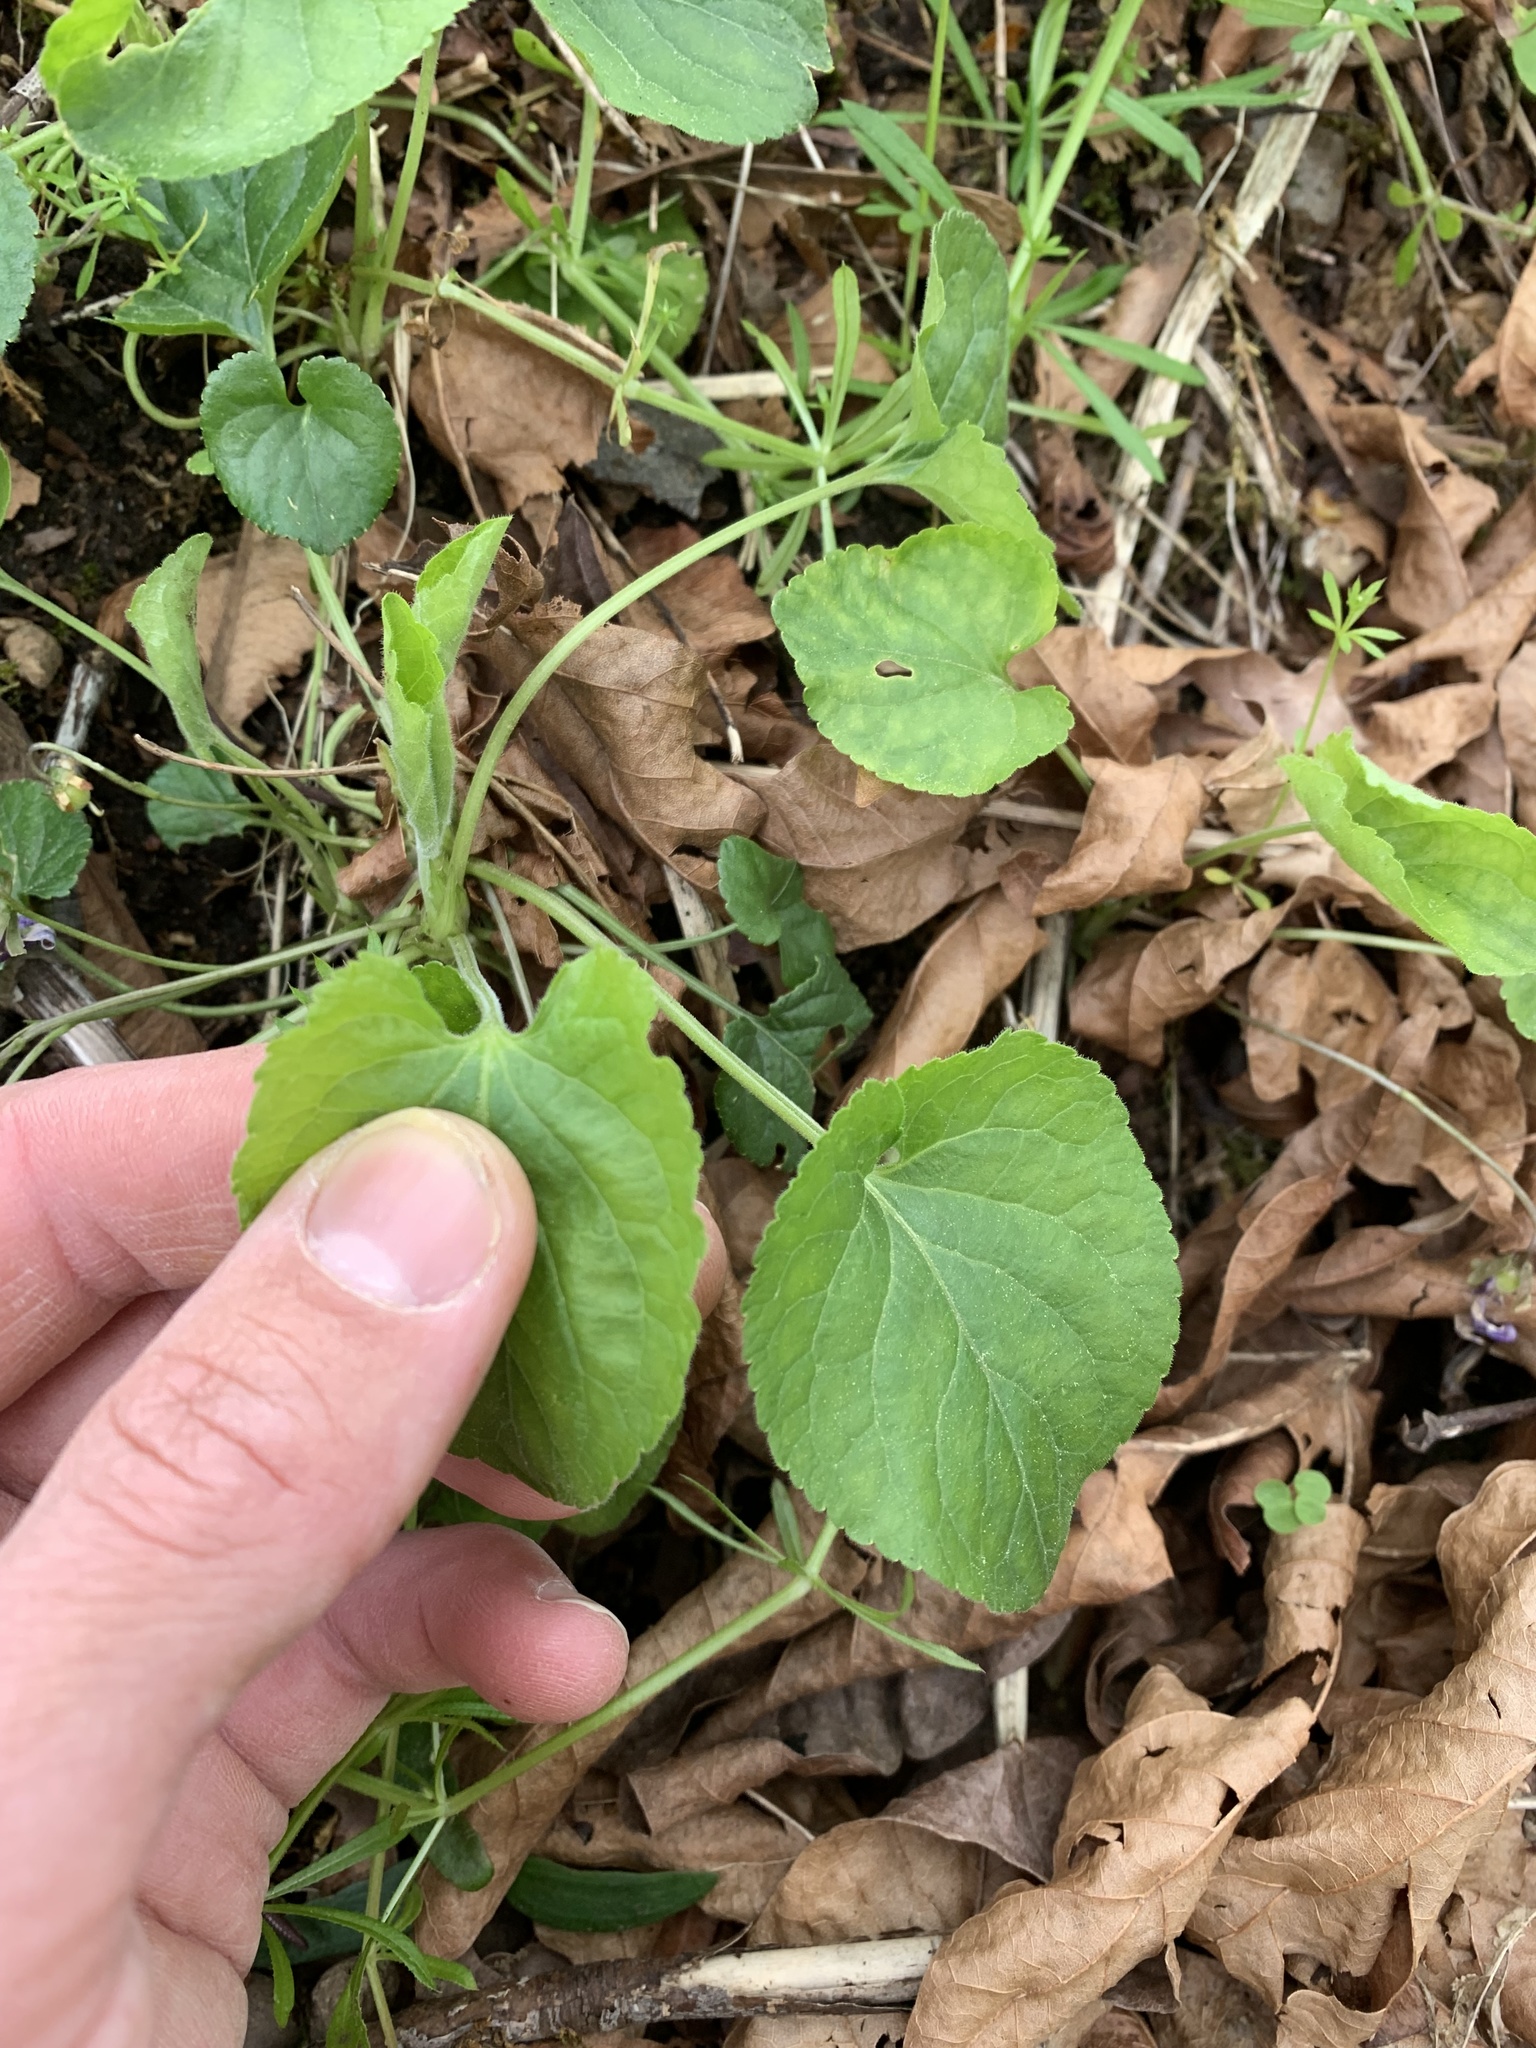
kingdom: Plantae
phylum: Tracheophyta
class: Magnoliopsida
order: Malpighiales
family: Violaceae
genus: Viola
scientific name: Viola odorata
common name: Sweet violet
